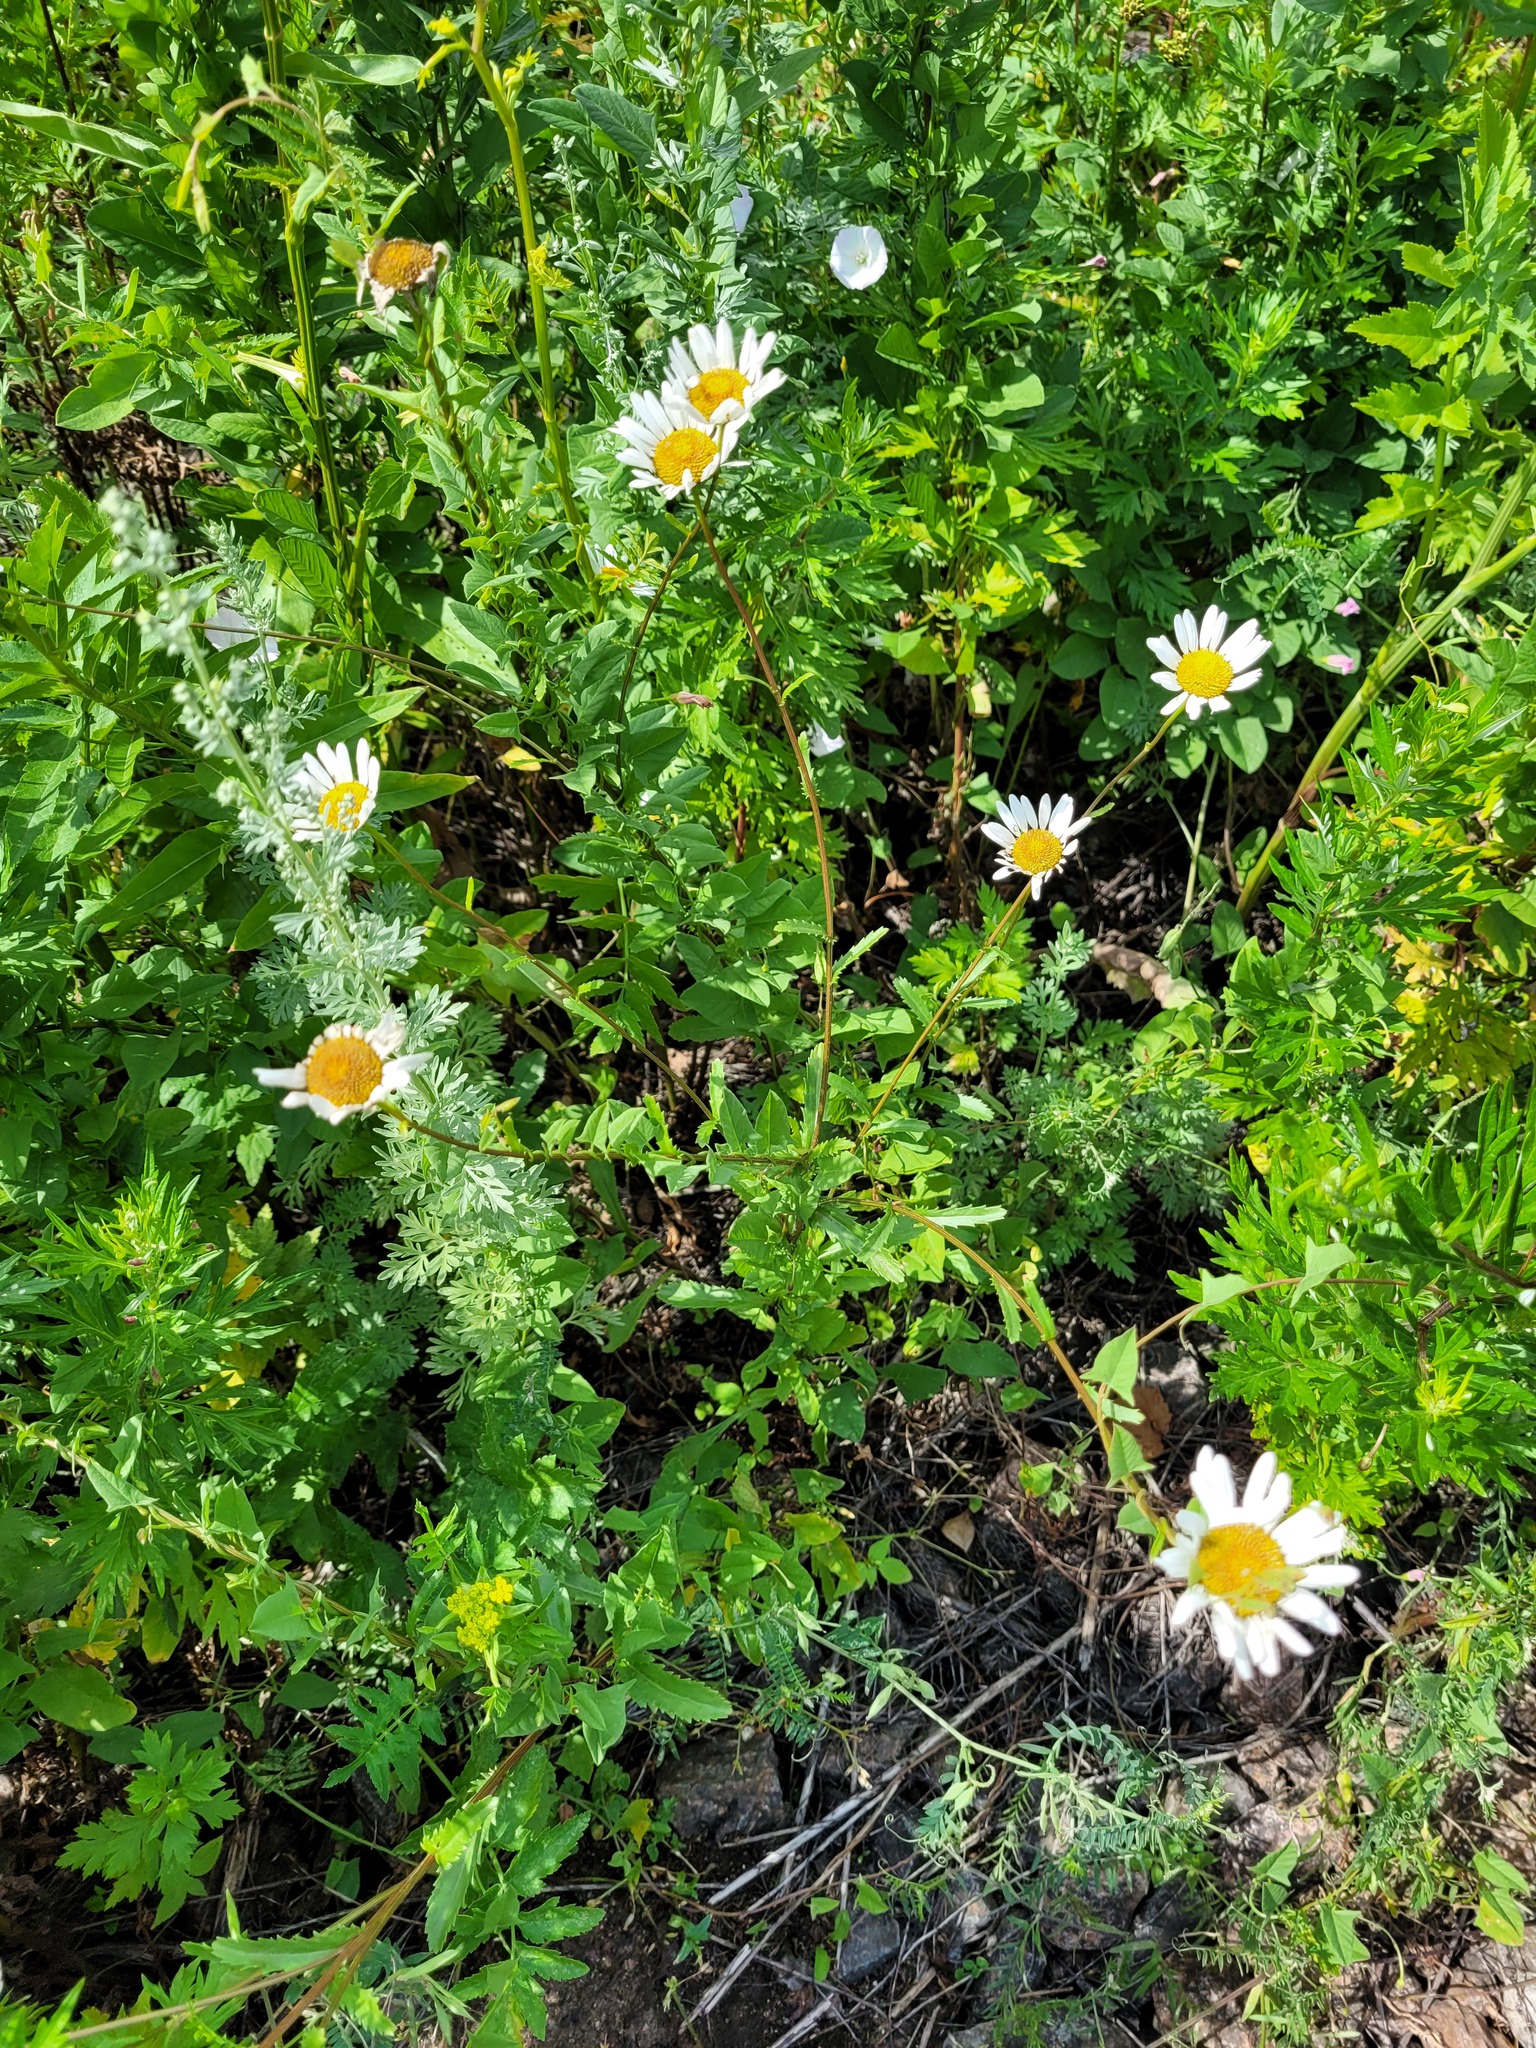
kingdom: Plantae
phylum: Tracheophyta
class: Magnoliopsida
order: Asterales
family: Asteraceae
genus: Leucanthemum
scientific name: Leucanthemum vulgare
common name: Oxeye daisy
